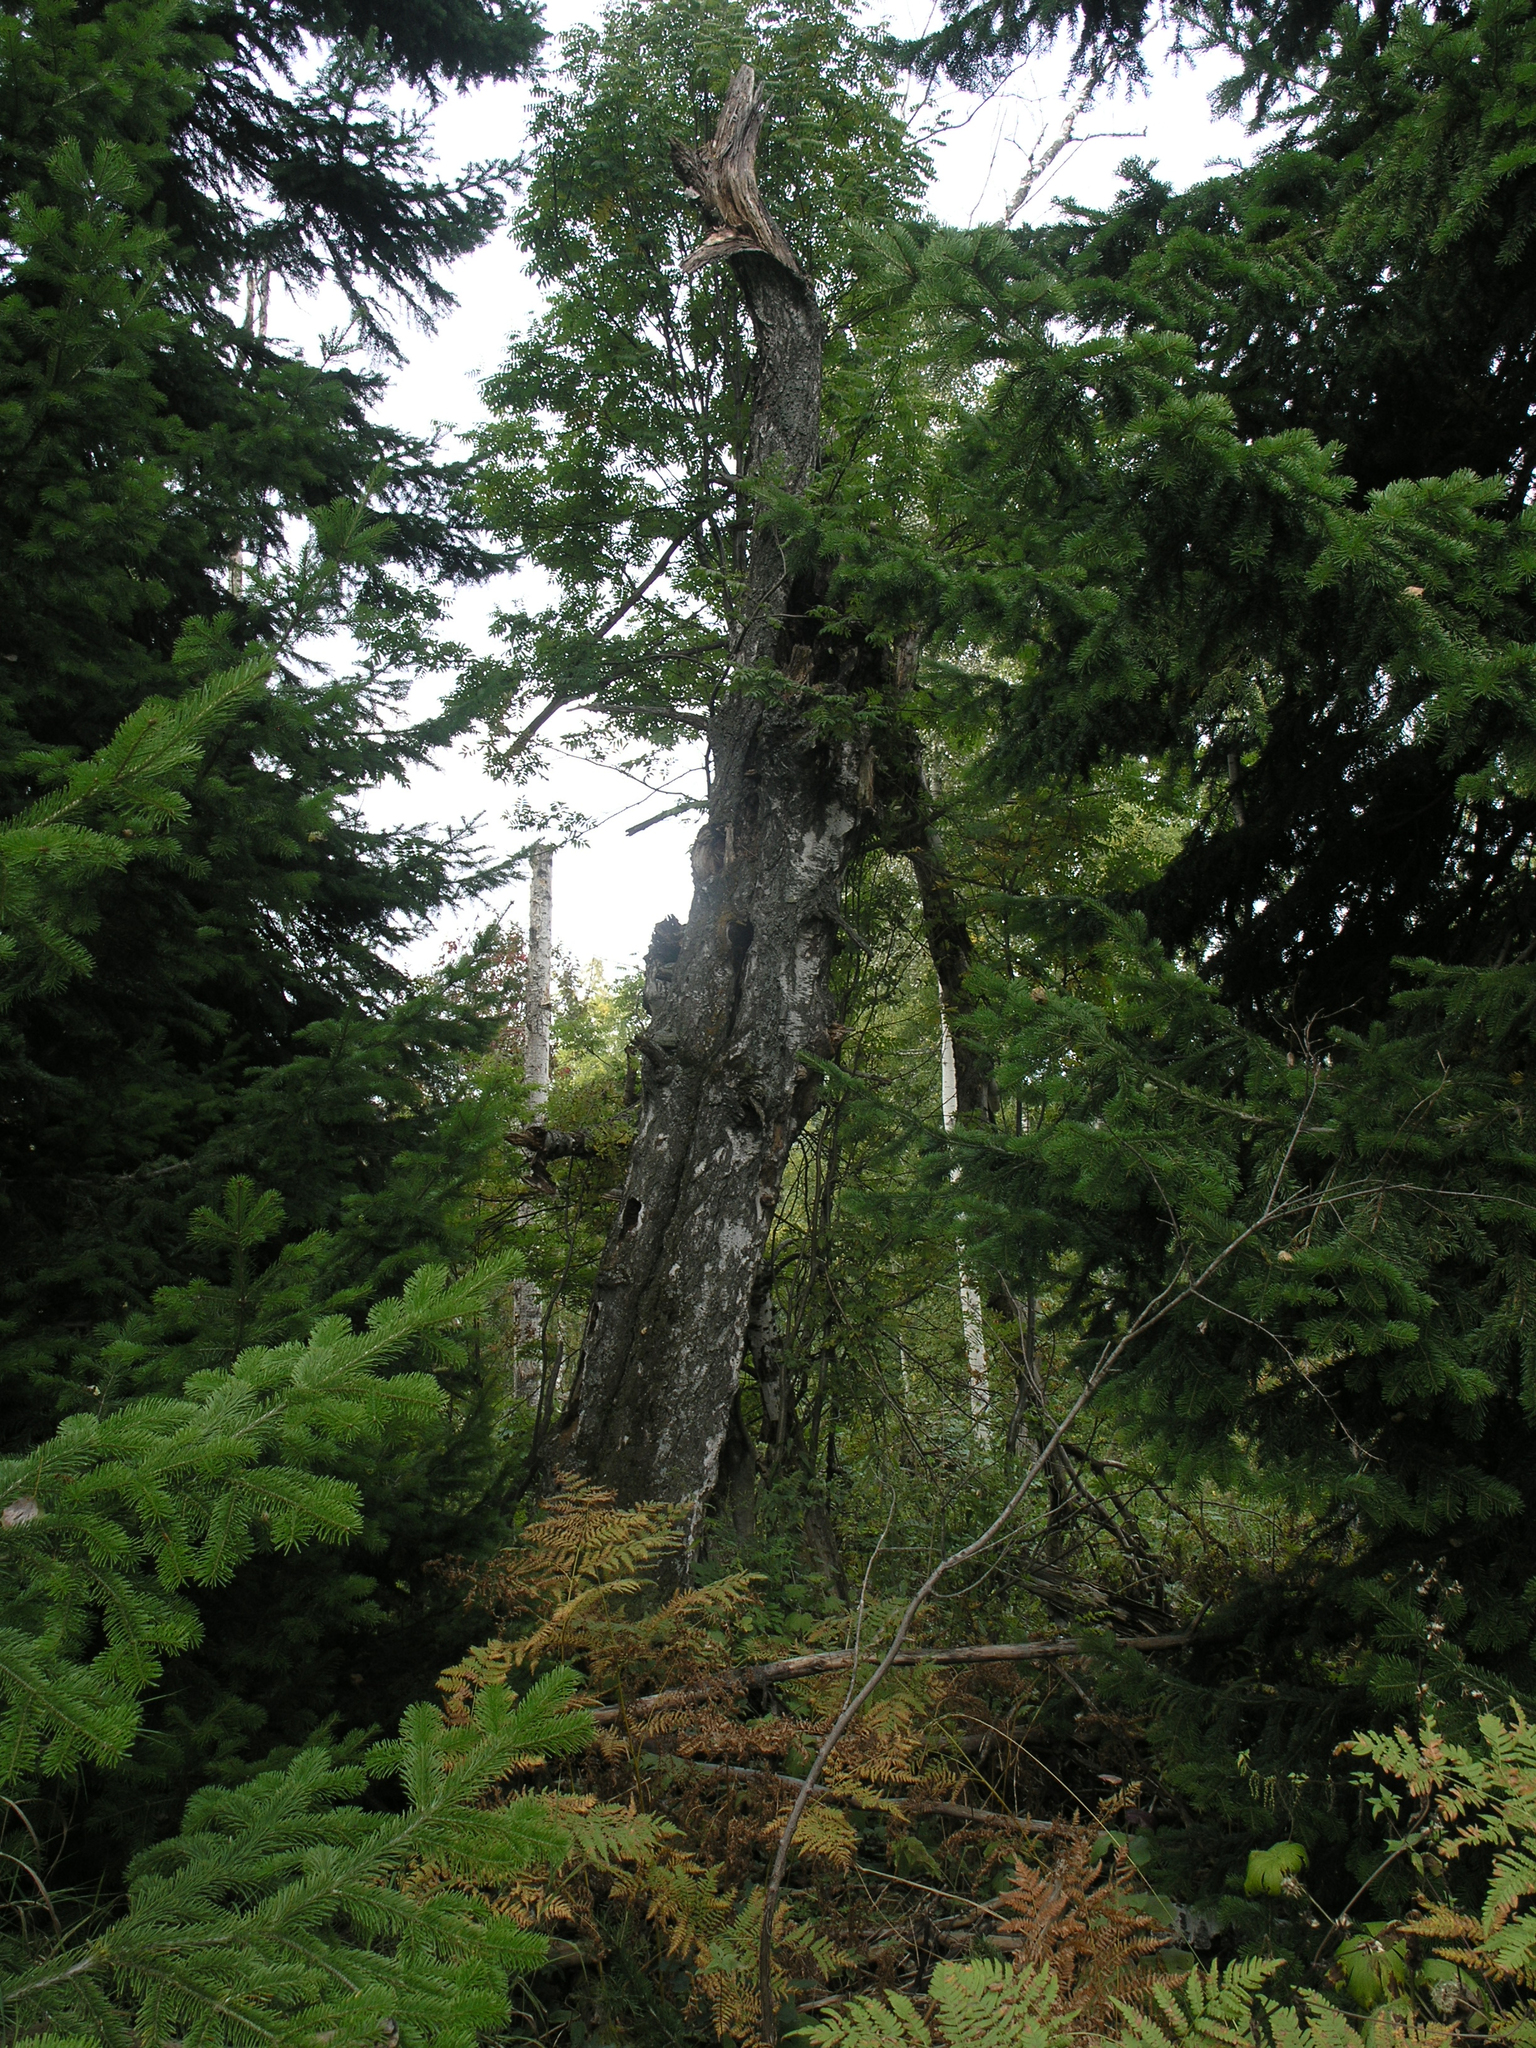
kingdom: Plantae
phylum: Tracheophyta
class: Magnoliopsida
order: Fagales
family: Betulaceae
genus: Betula
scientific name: Betula pendula
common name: Silver birch
